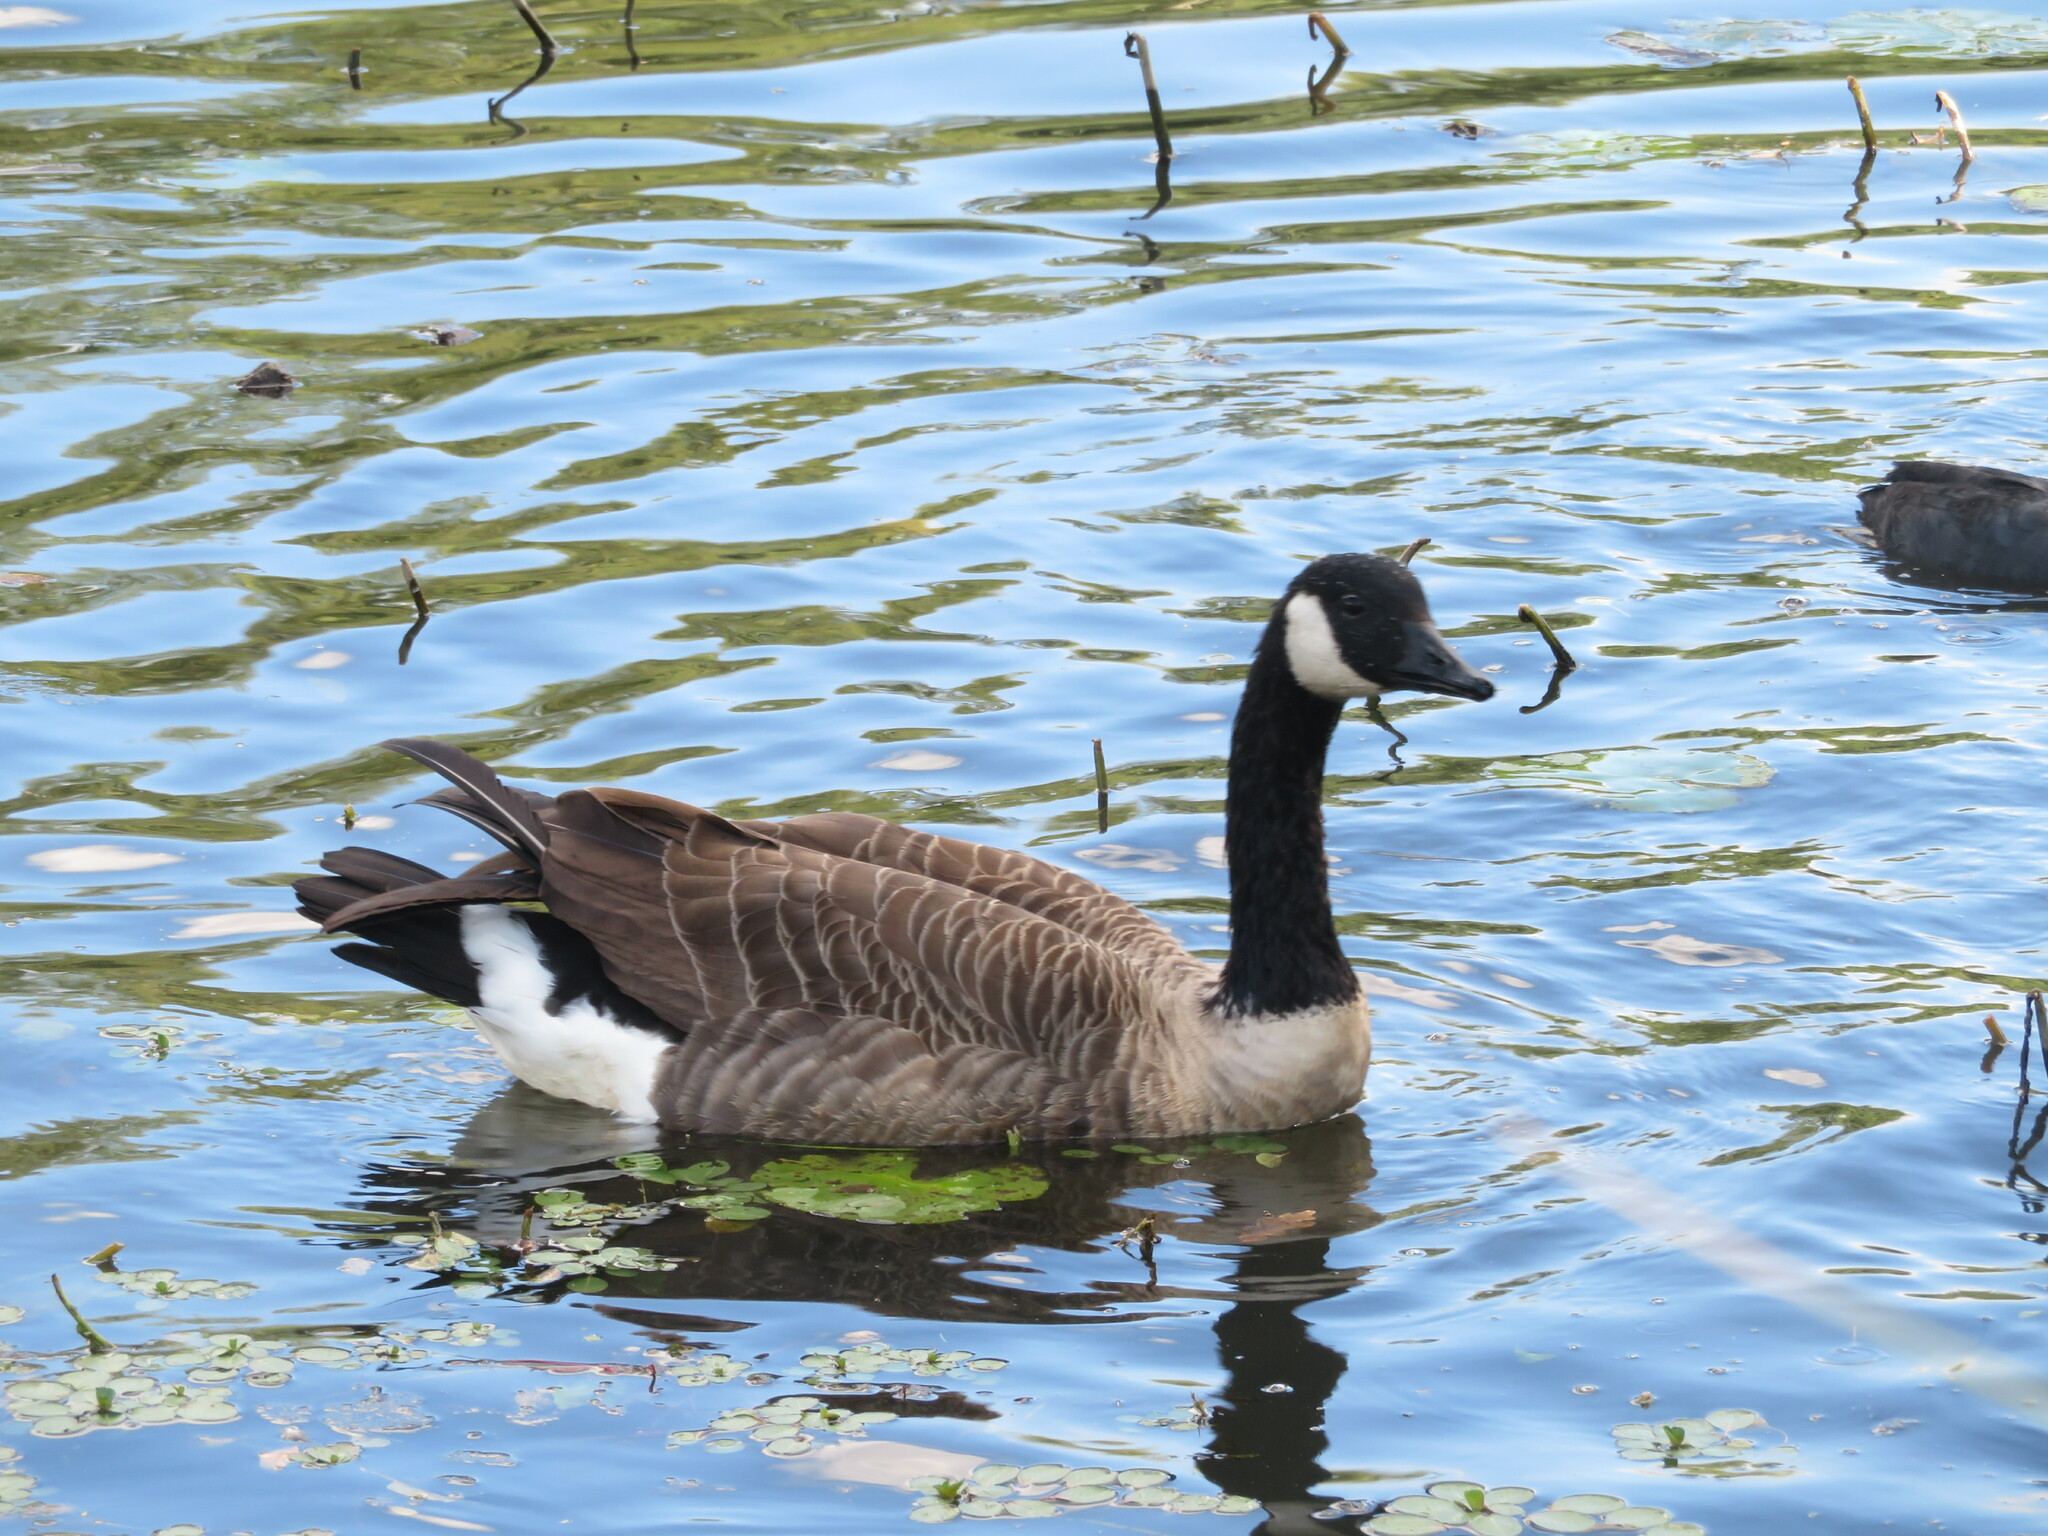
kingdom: Animalia
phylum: Chordata
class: Aves
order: Anseriformes
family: Anatidae
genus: Branta
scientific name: Branta canadensis
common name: Canada goose
